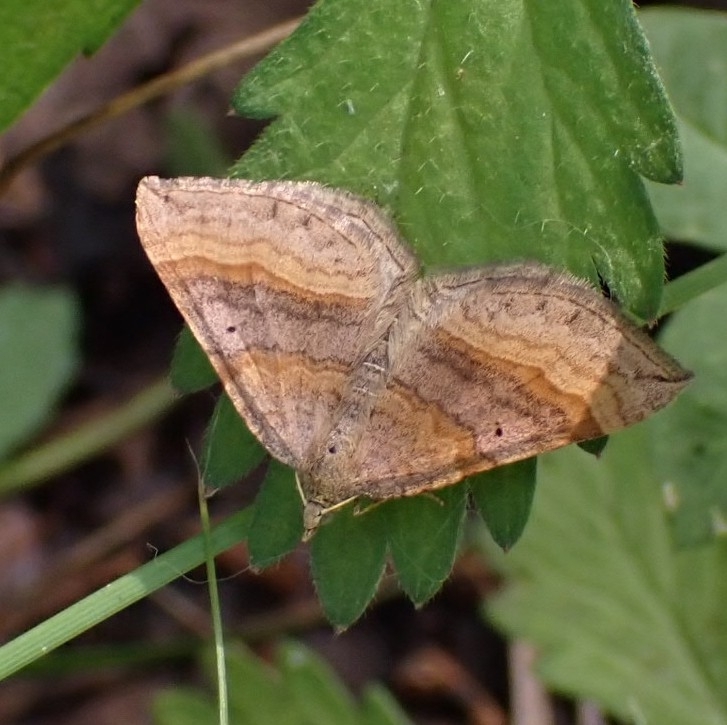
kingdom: Animalia
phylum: Arthropoda
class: Insecta
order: Lepidoptera
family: Geometridae
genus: Scotopteryx
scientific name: Scotopteryx chenopodiata
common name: Shaded broad-bar
